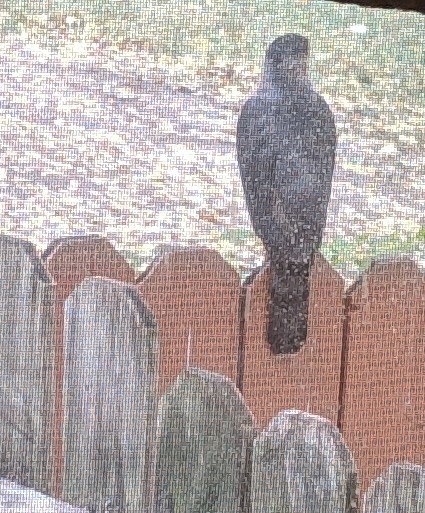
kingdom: Animalia
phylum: Chordata
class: Aves
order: Accipitriformes
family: Accipitridae
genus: Accipiter
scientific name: Accipiter cooperii
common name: Cooper's hawk
